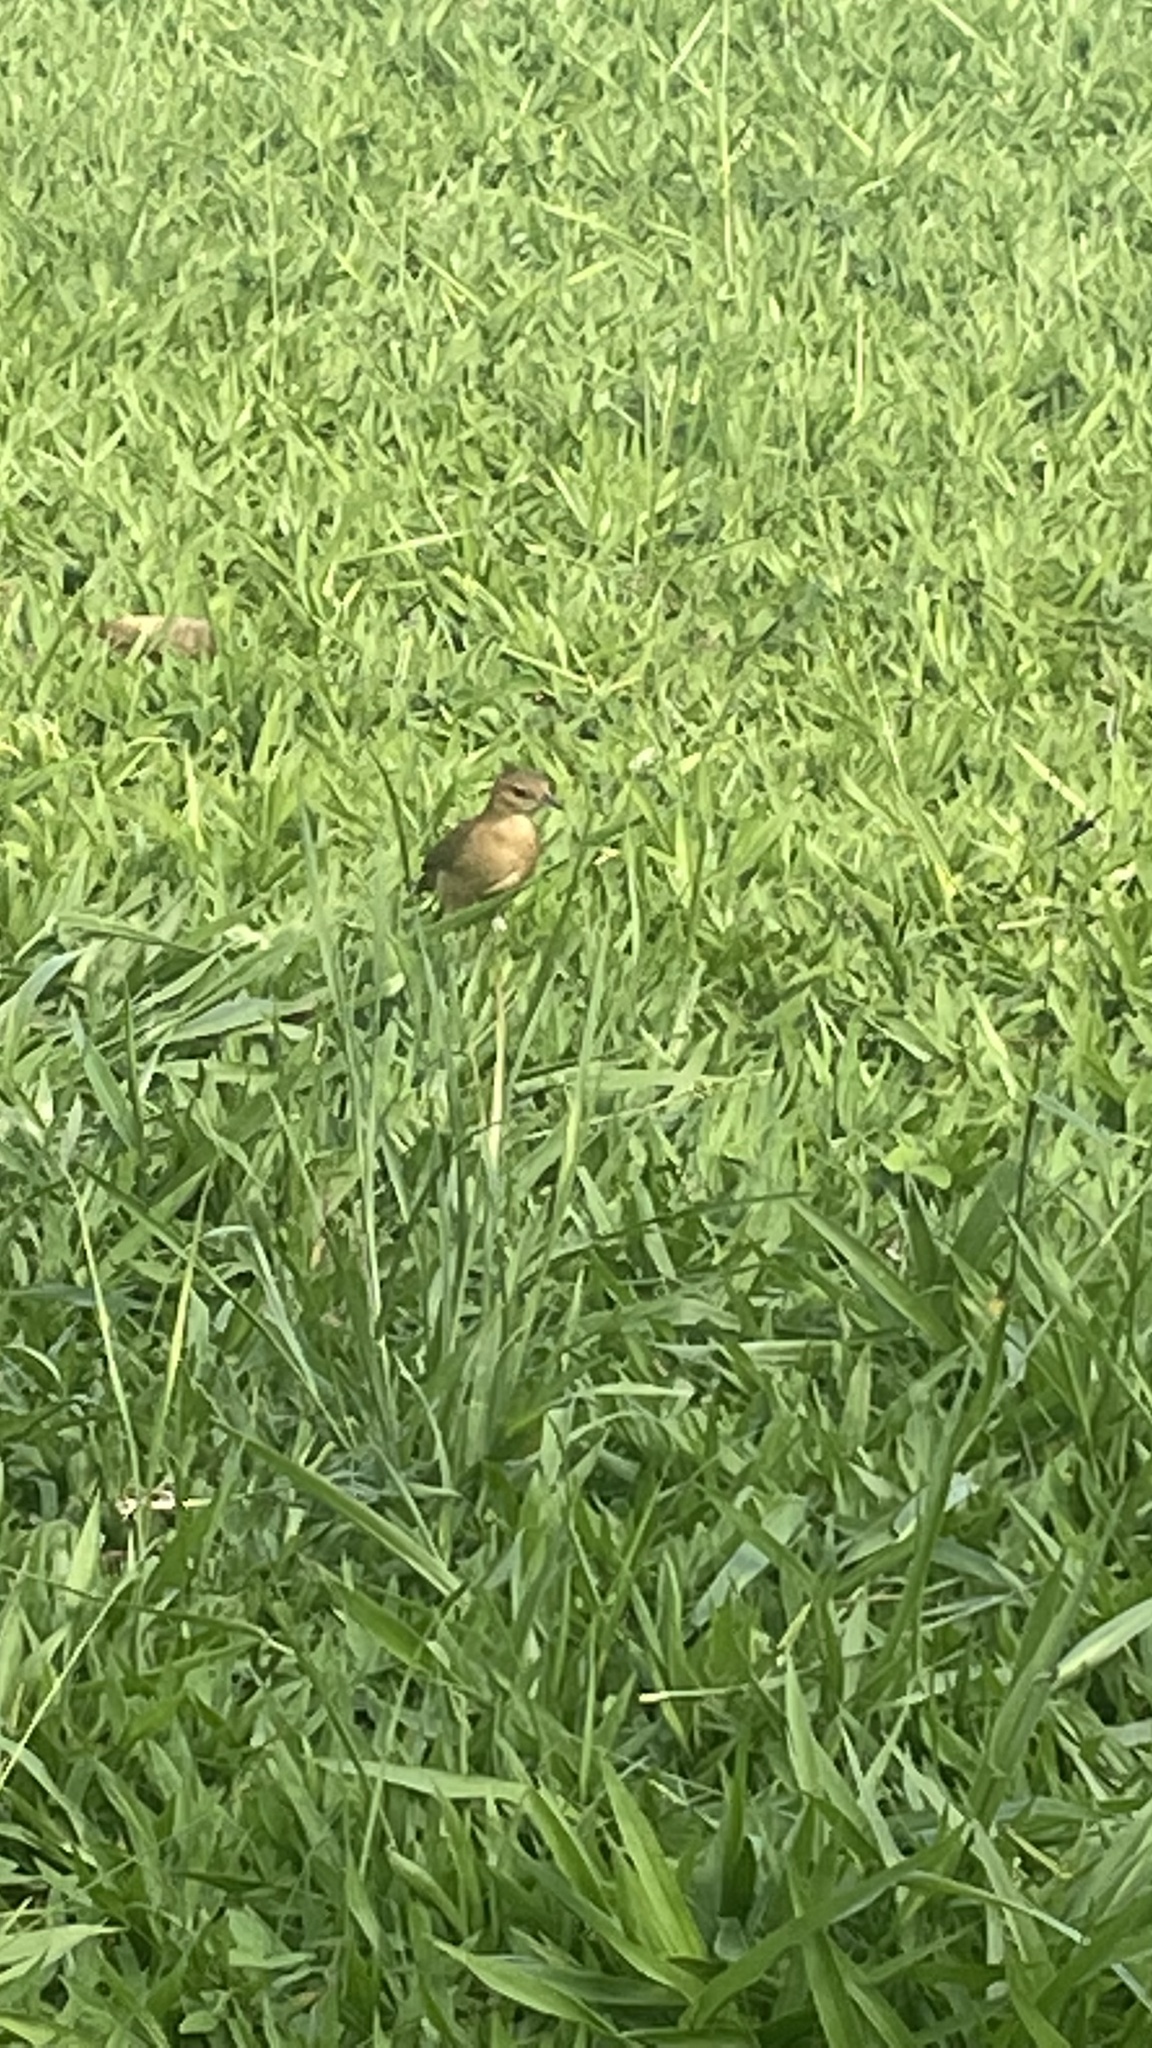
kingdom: Animalia
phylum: Chordata
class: Aves
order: Passeriformes
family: Furnariidae
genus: Furnarius
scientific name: Furnarius rufus
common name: Rufous hornero
